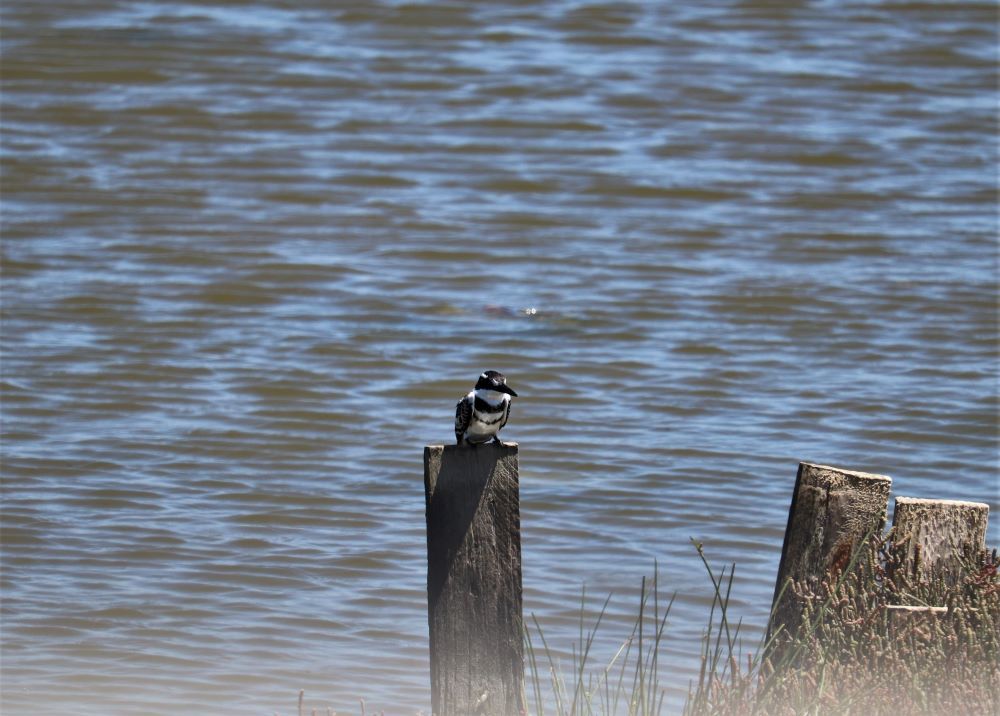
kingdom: Animalia
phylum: Chordata
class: Aves
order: Coraciiformes
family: Alcedinidae
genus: Ceryle
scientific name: Ceryle rudis
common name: Pied kingfisher
